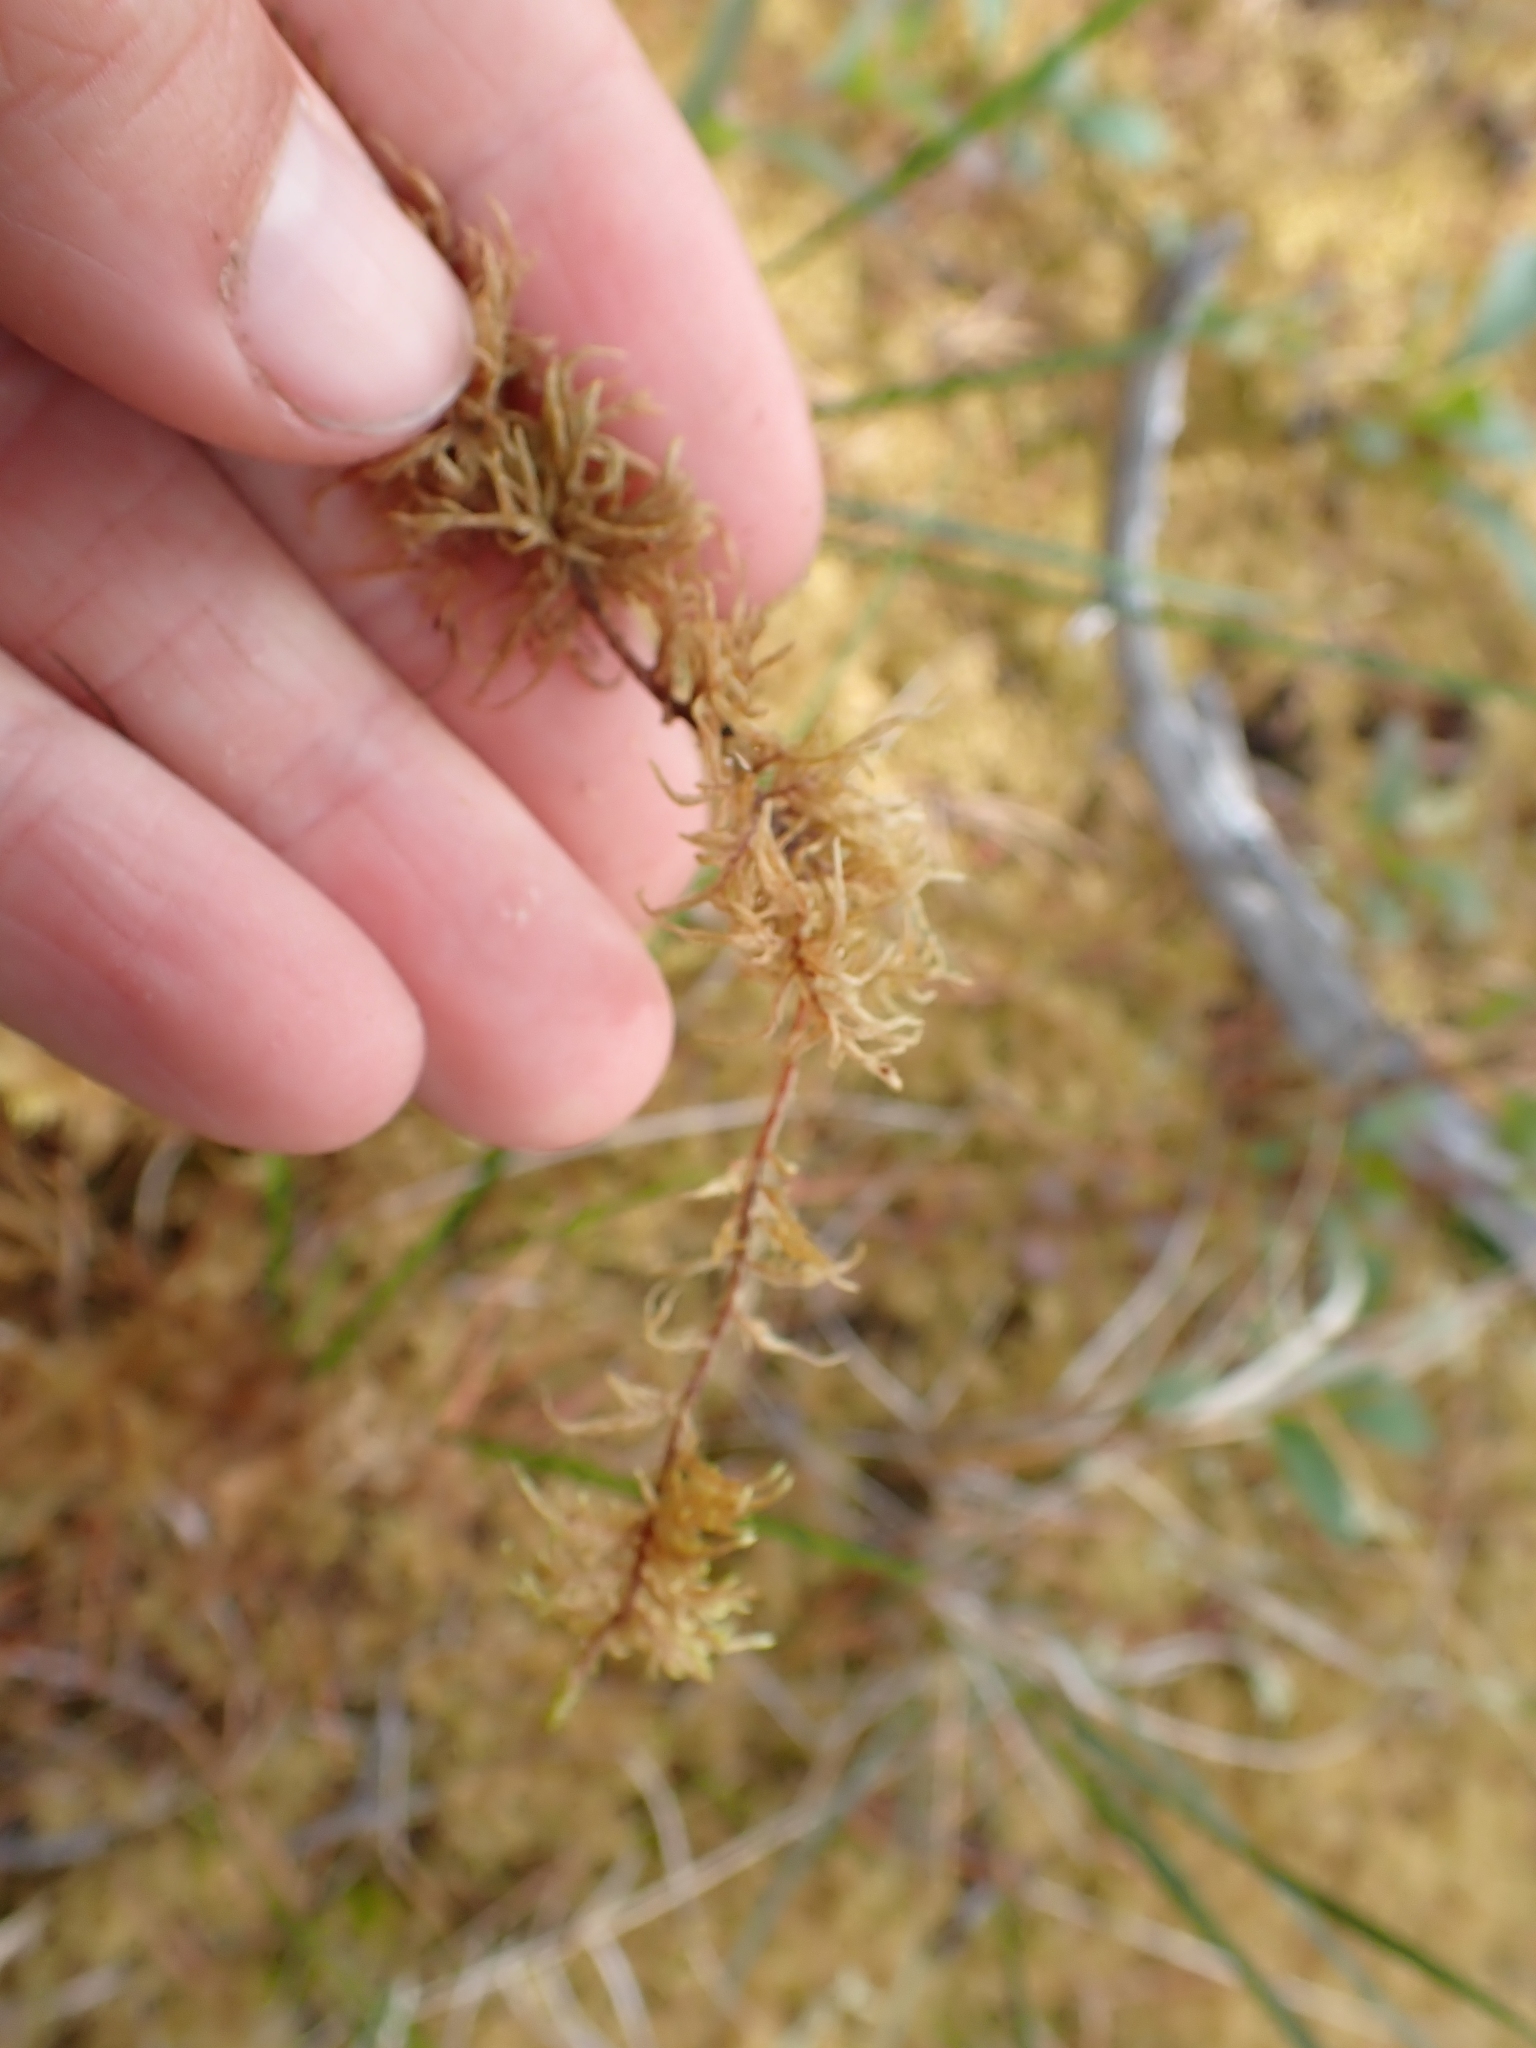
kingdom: Plantae
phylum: Bryophyta
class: Bryopsida
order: Hypnales
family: Hylocomiaceae
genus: Hylocomium
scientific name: Hylocomium splendens
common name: Stairstep moss
